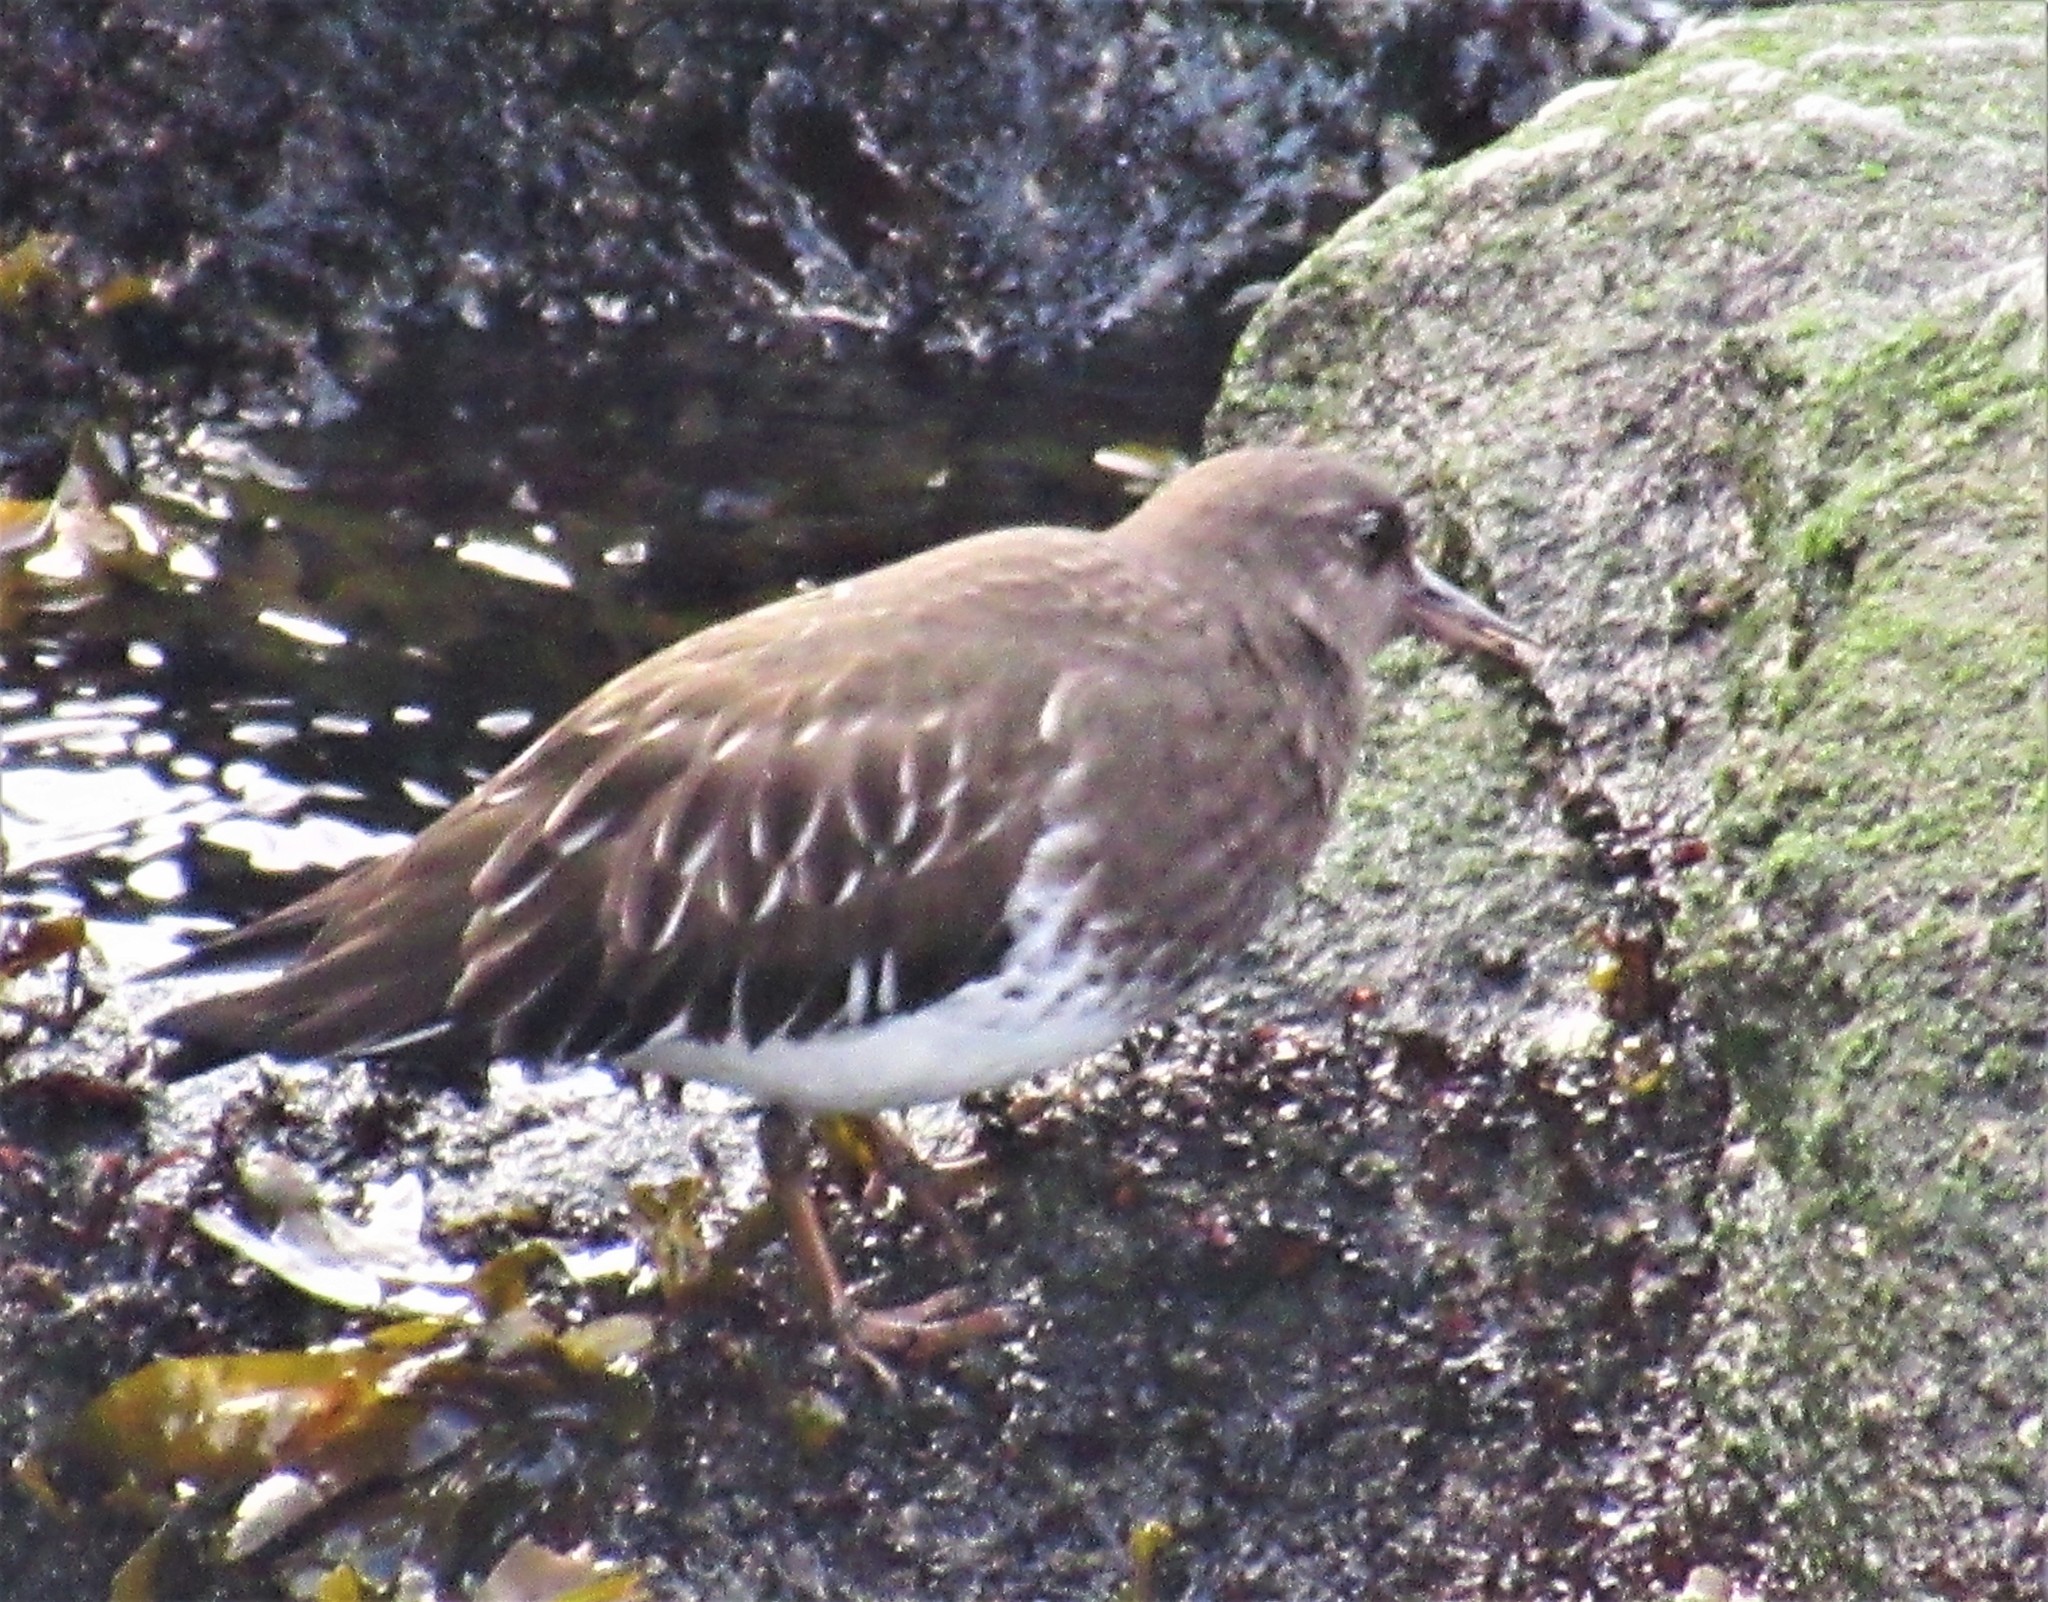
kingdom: Animalia
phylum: Chordata
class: Aves
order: Charadriiformes
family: Scolopacidae
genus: Arenaria
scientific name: Arenaria melanocephala
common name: Black turnstone
